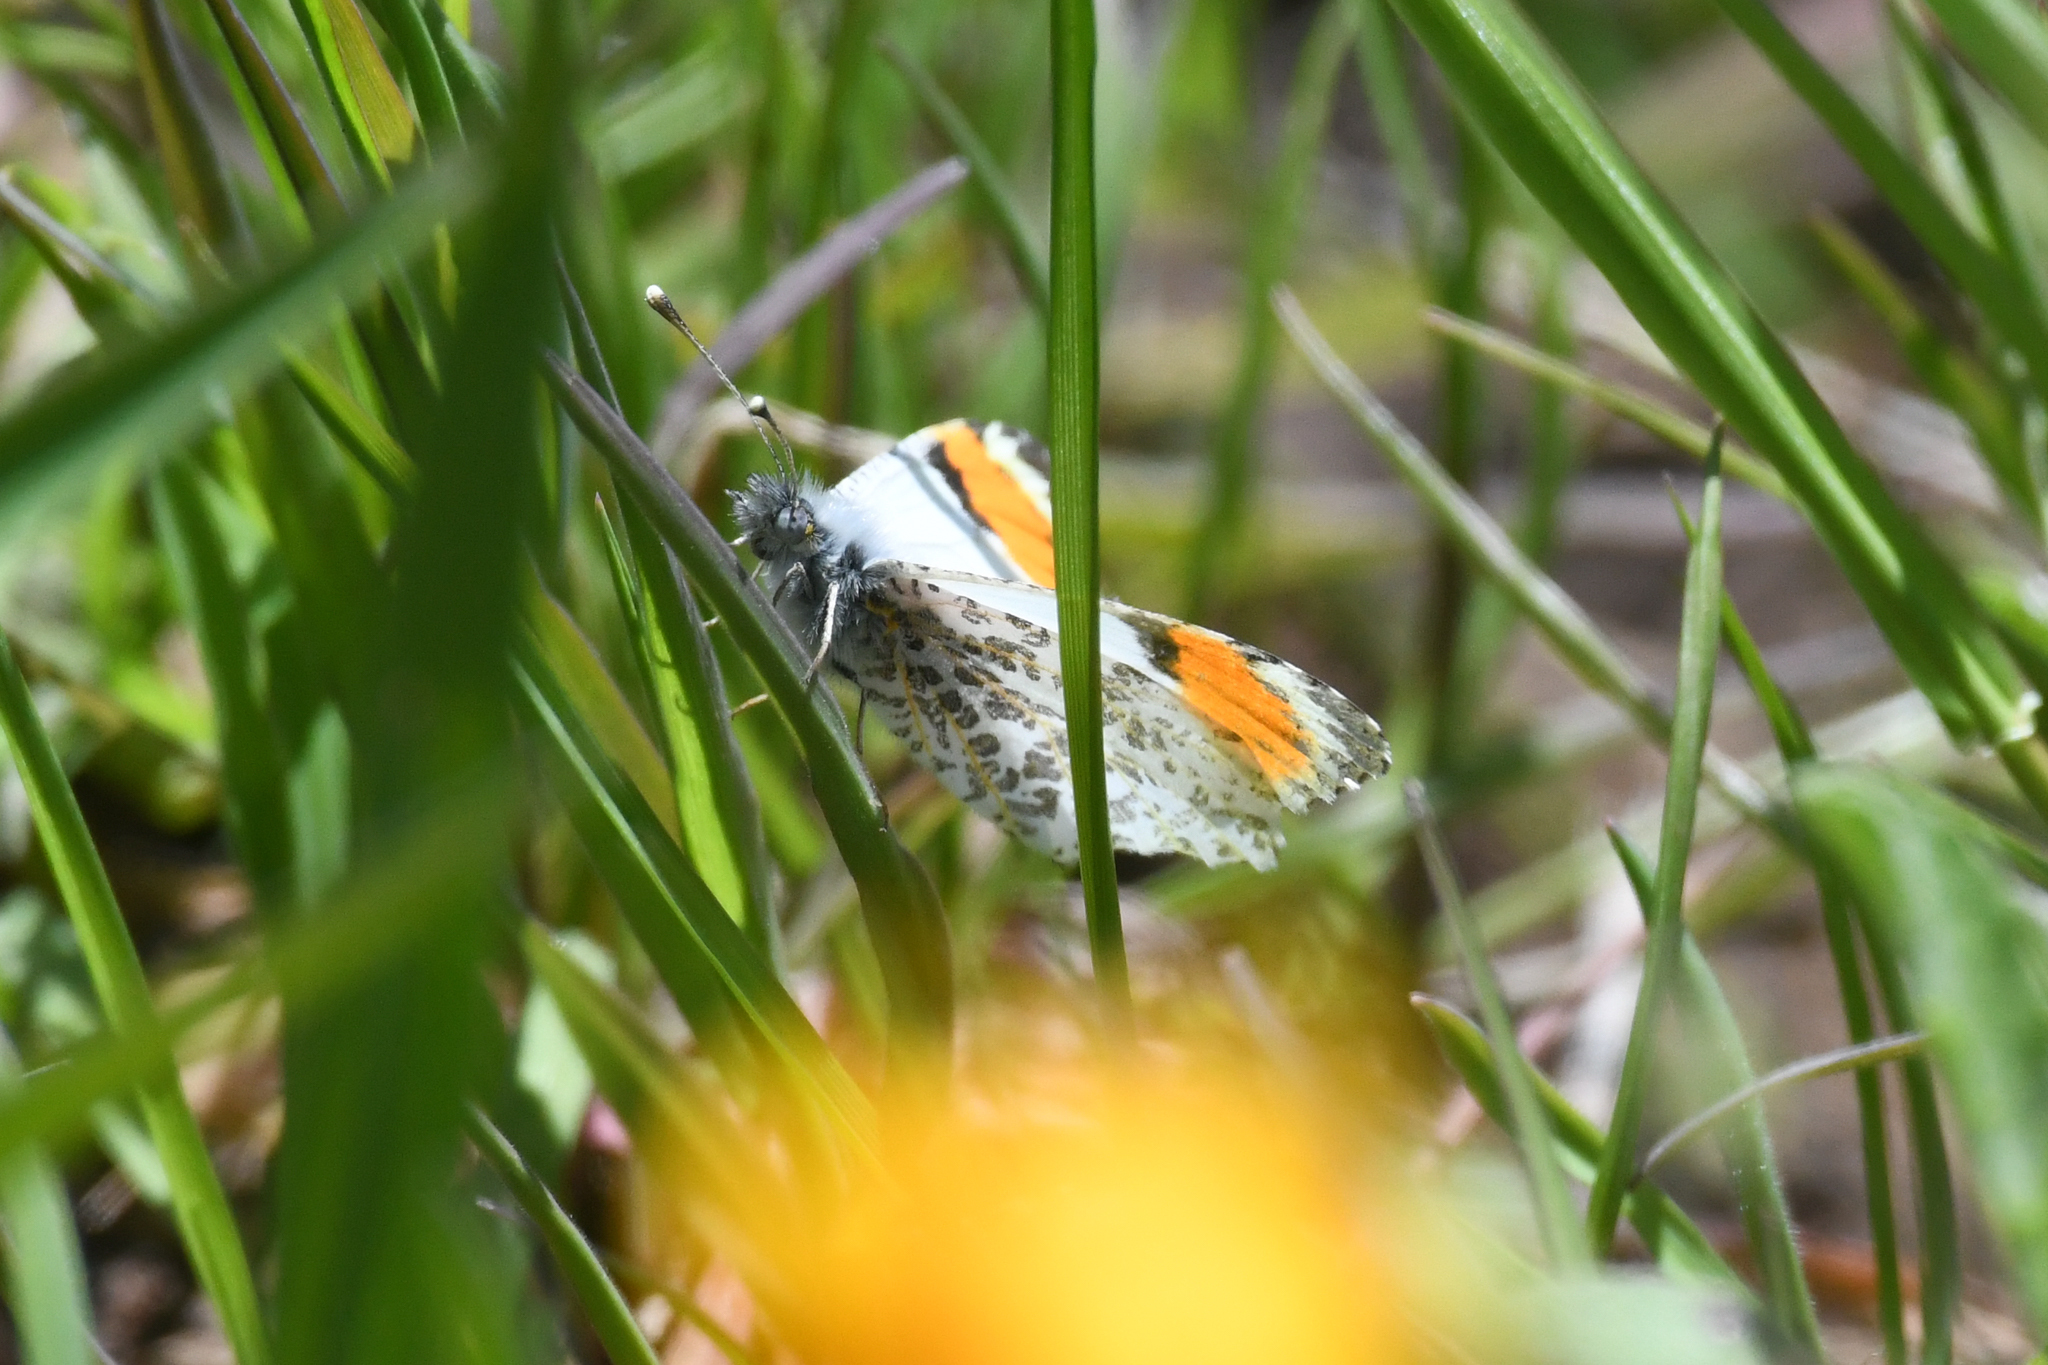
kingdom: Animalia
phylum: Arthropoda
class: Insecta
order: Lepidoptera
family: Pieridae
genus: Anthocharis
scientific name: Anthocharis sara
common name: Sara's orangetip
